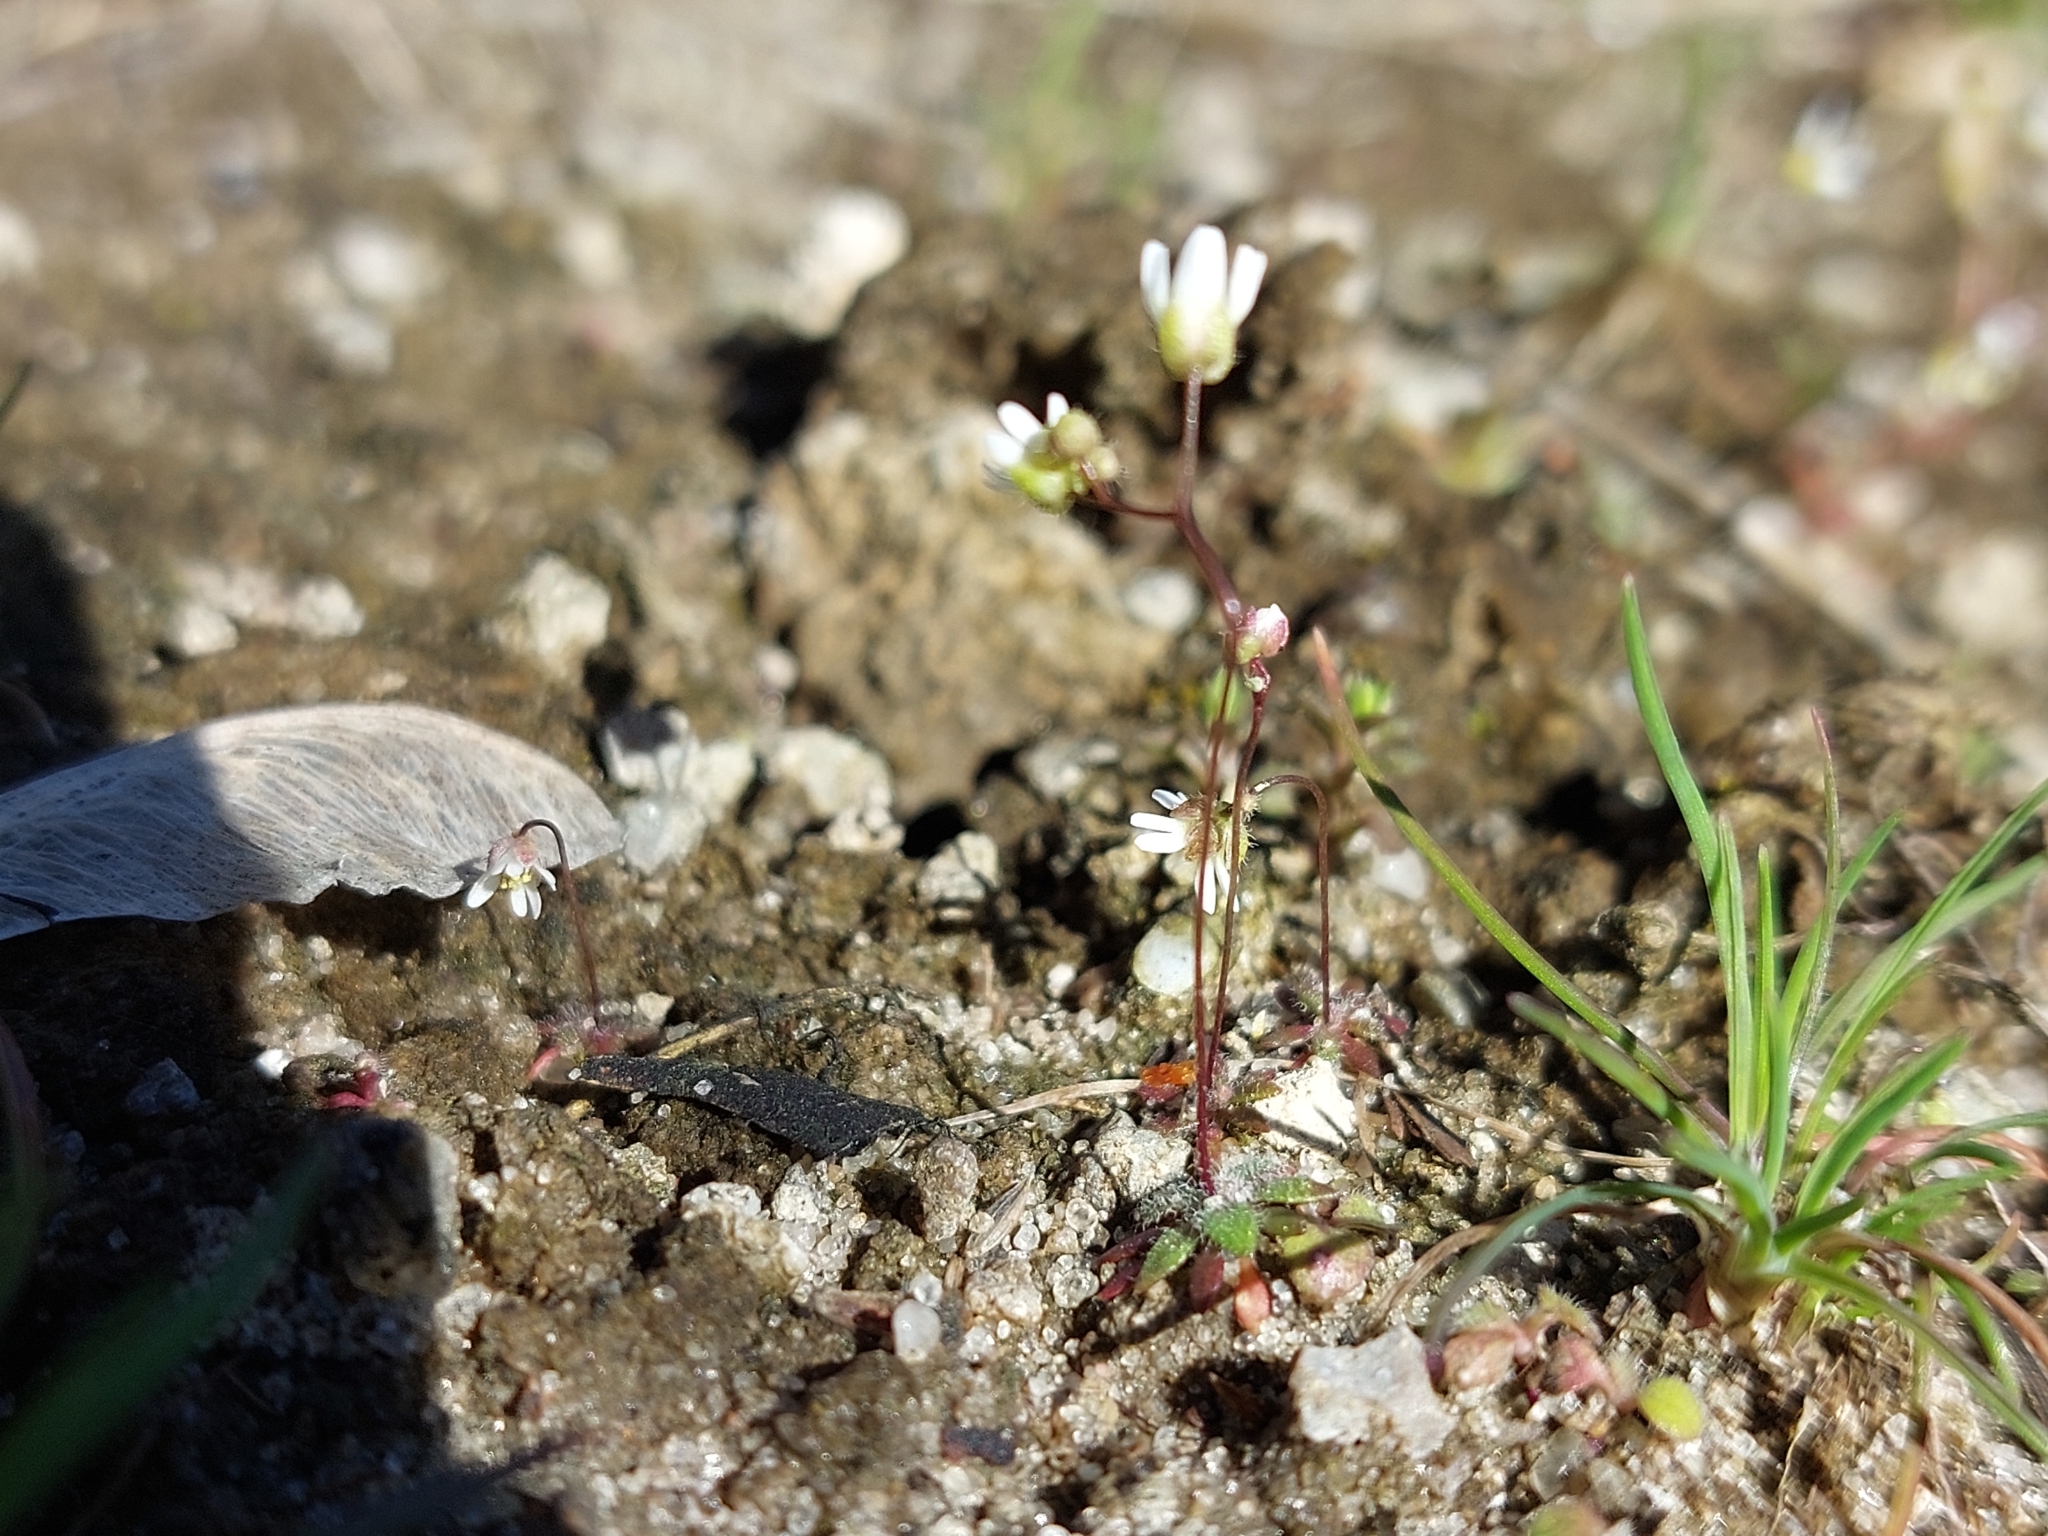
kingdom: Plantae
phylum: Tracheophyta
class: Magnoliopsida
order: Brassicales
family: Brassicaceae
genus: Draba
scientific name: Draba verna
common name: Spring draba
